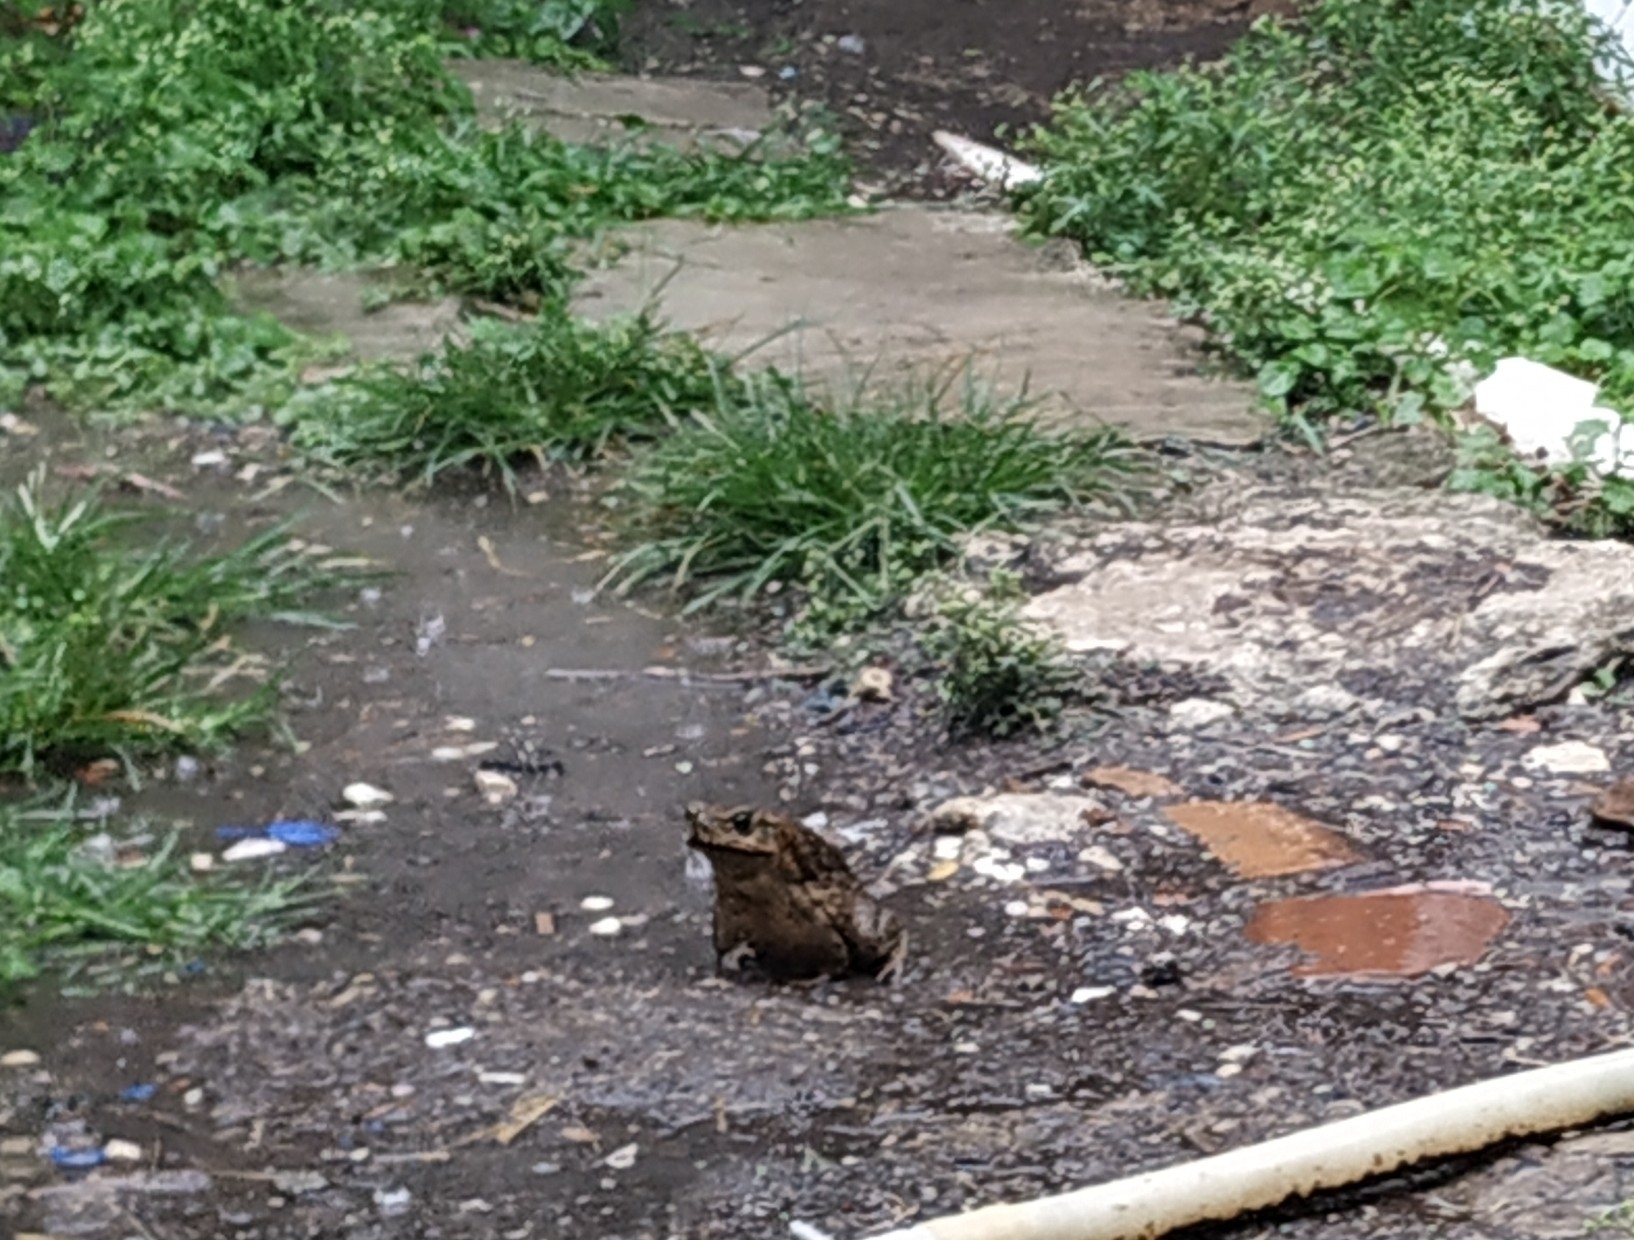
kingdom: Animalia
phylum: Chordata
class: Amphibia
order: Anura
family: Bufonidae
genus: Rhinella
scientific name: Rhinella horribilis
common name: Mesoamerican cane toad
